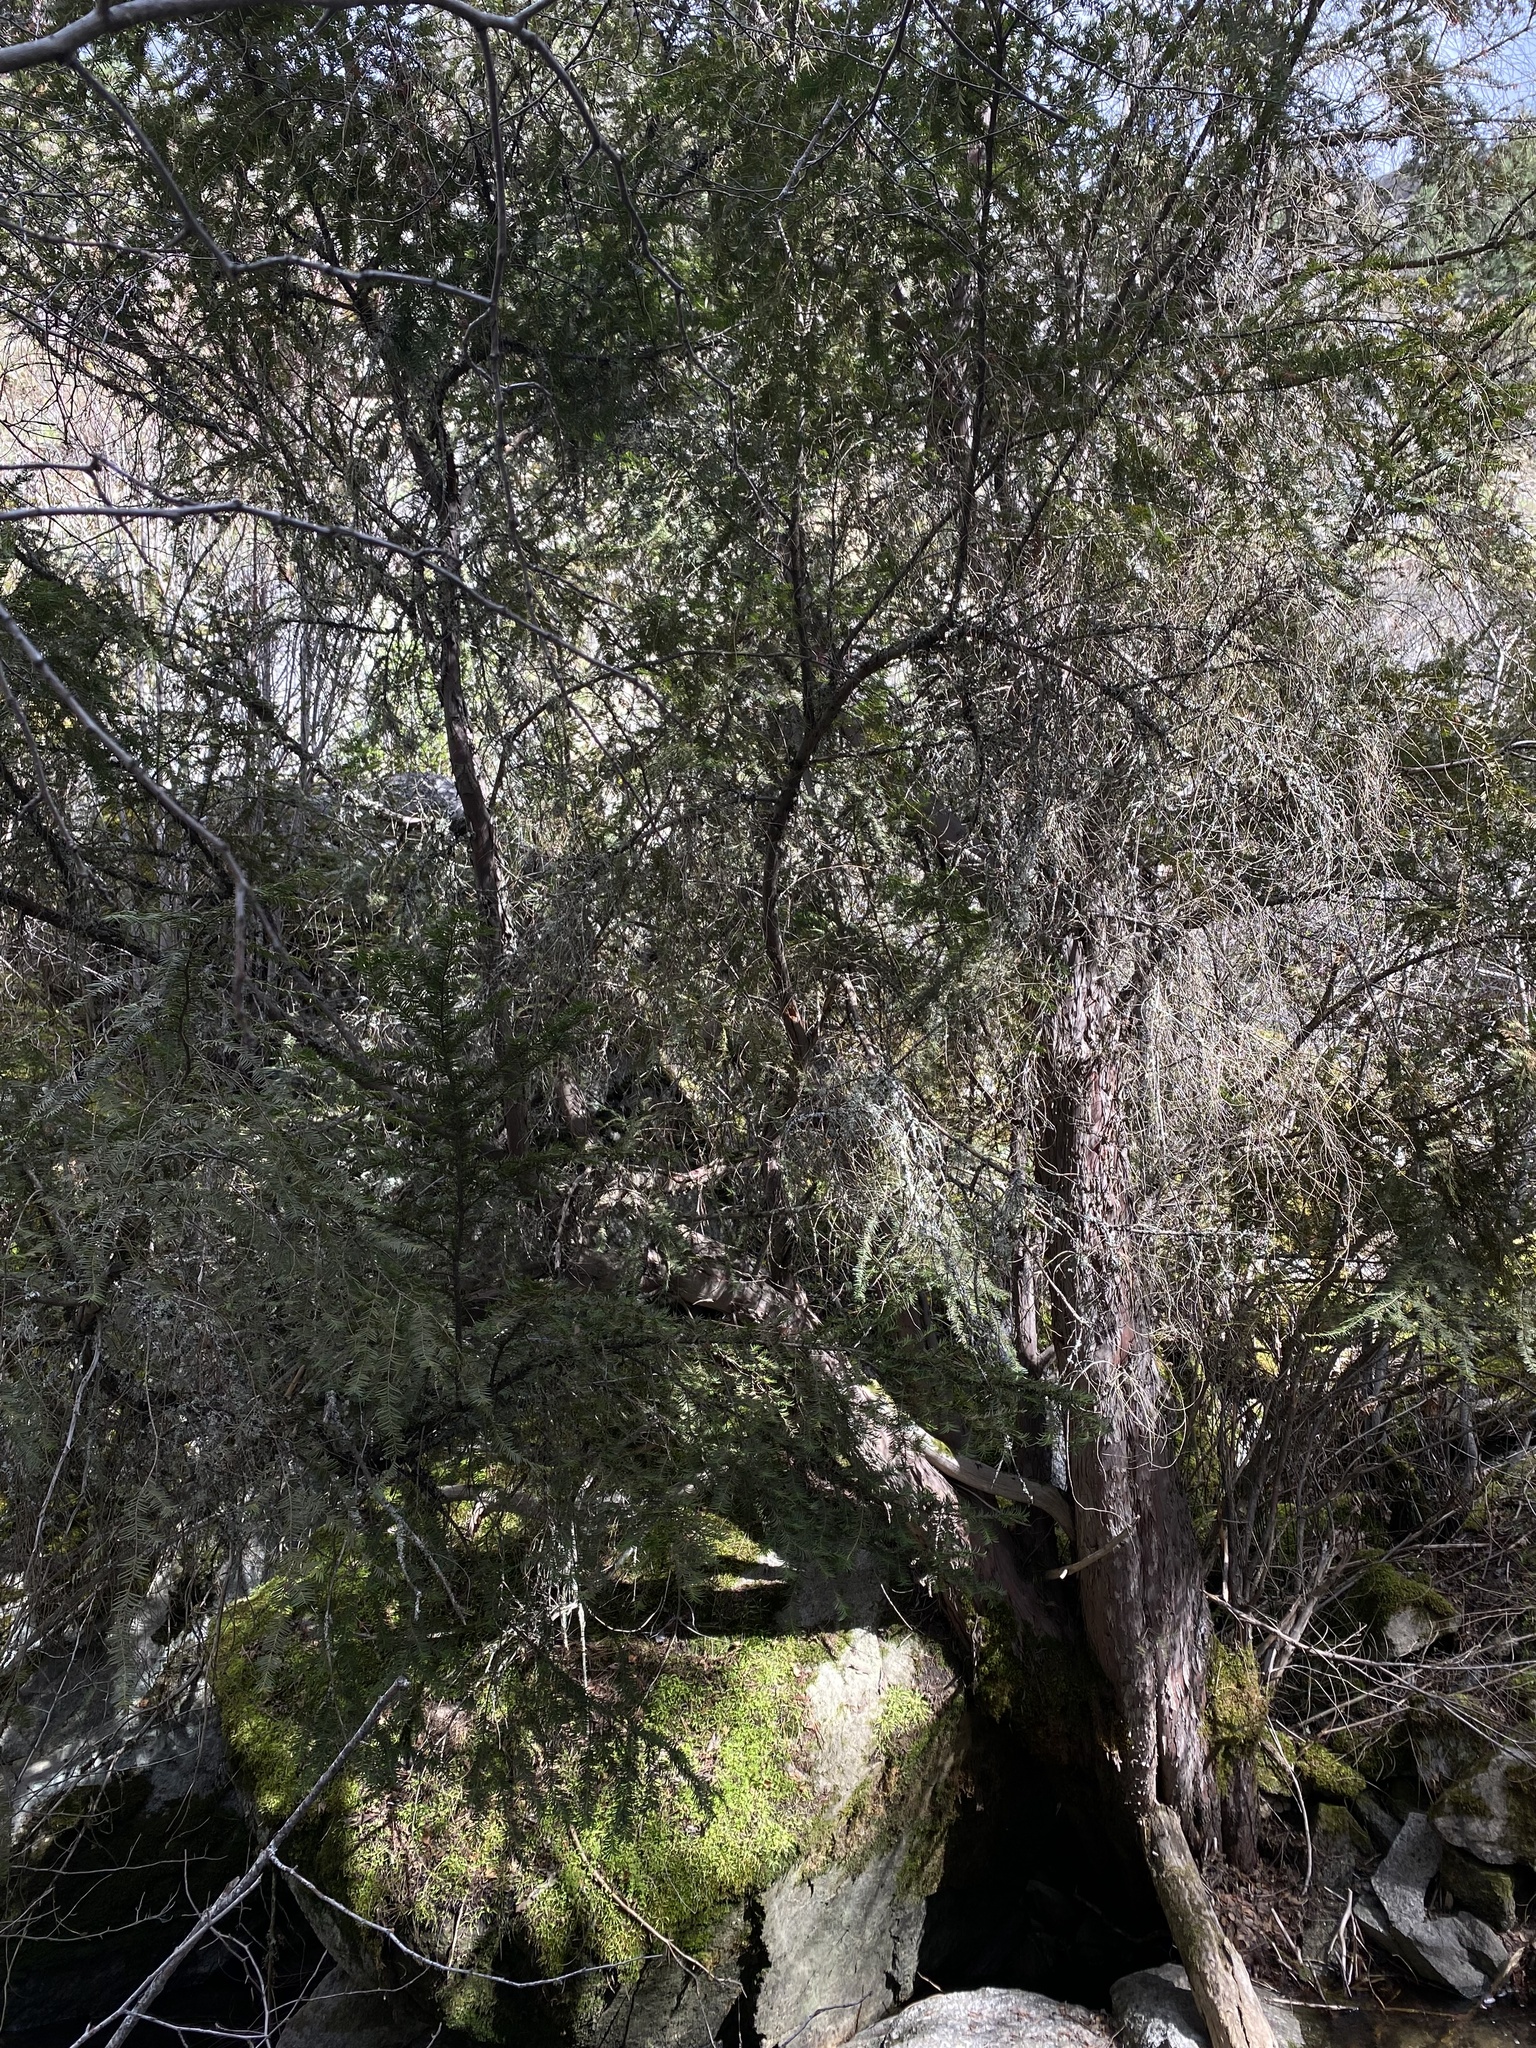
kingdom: Plantae
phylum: Tracheophyta
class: Pinopsida
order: Pinales
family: Taxaceae
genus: Taxus
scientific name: Taxus brevifolia
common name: Pacific yew
